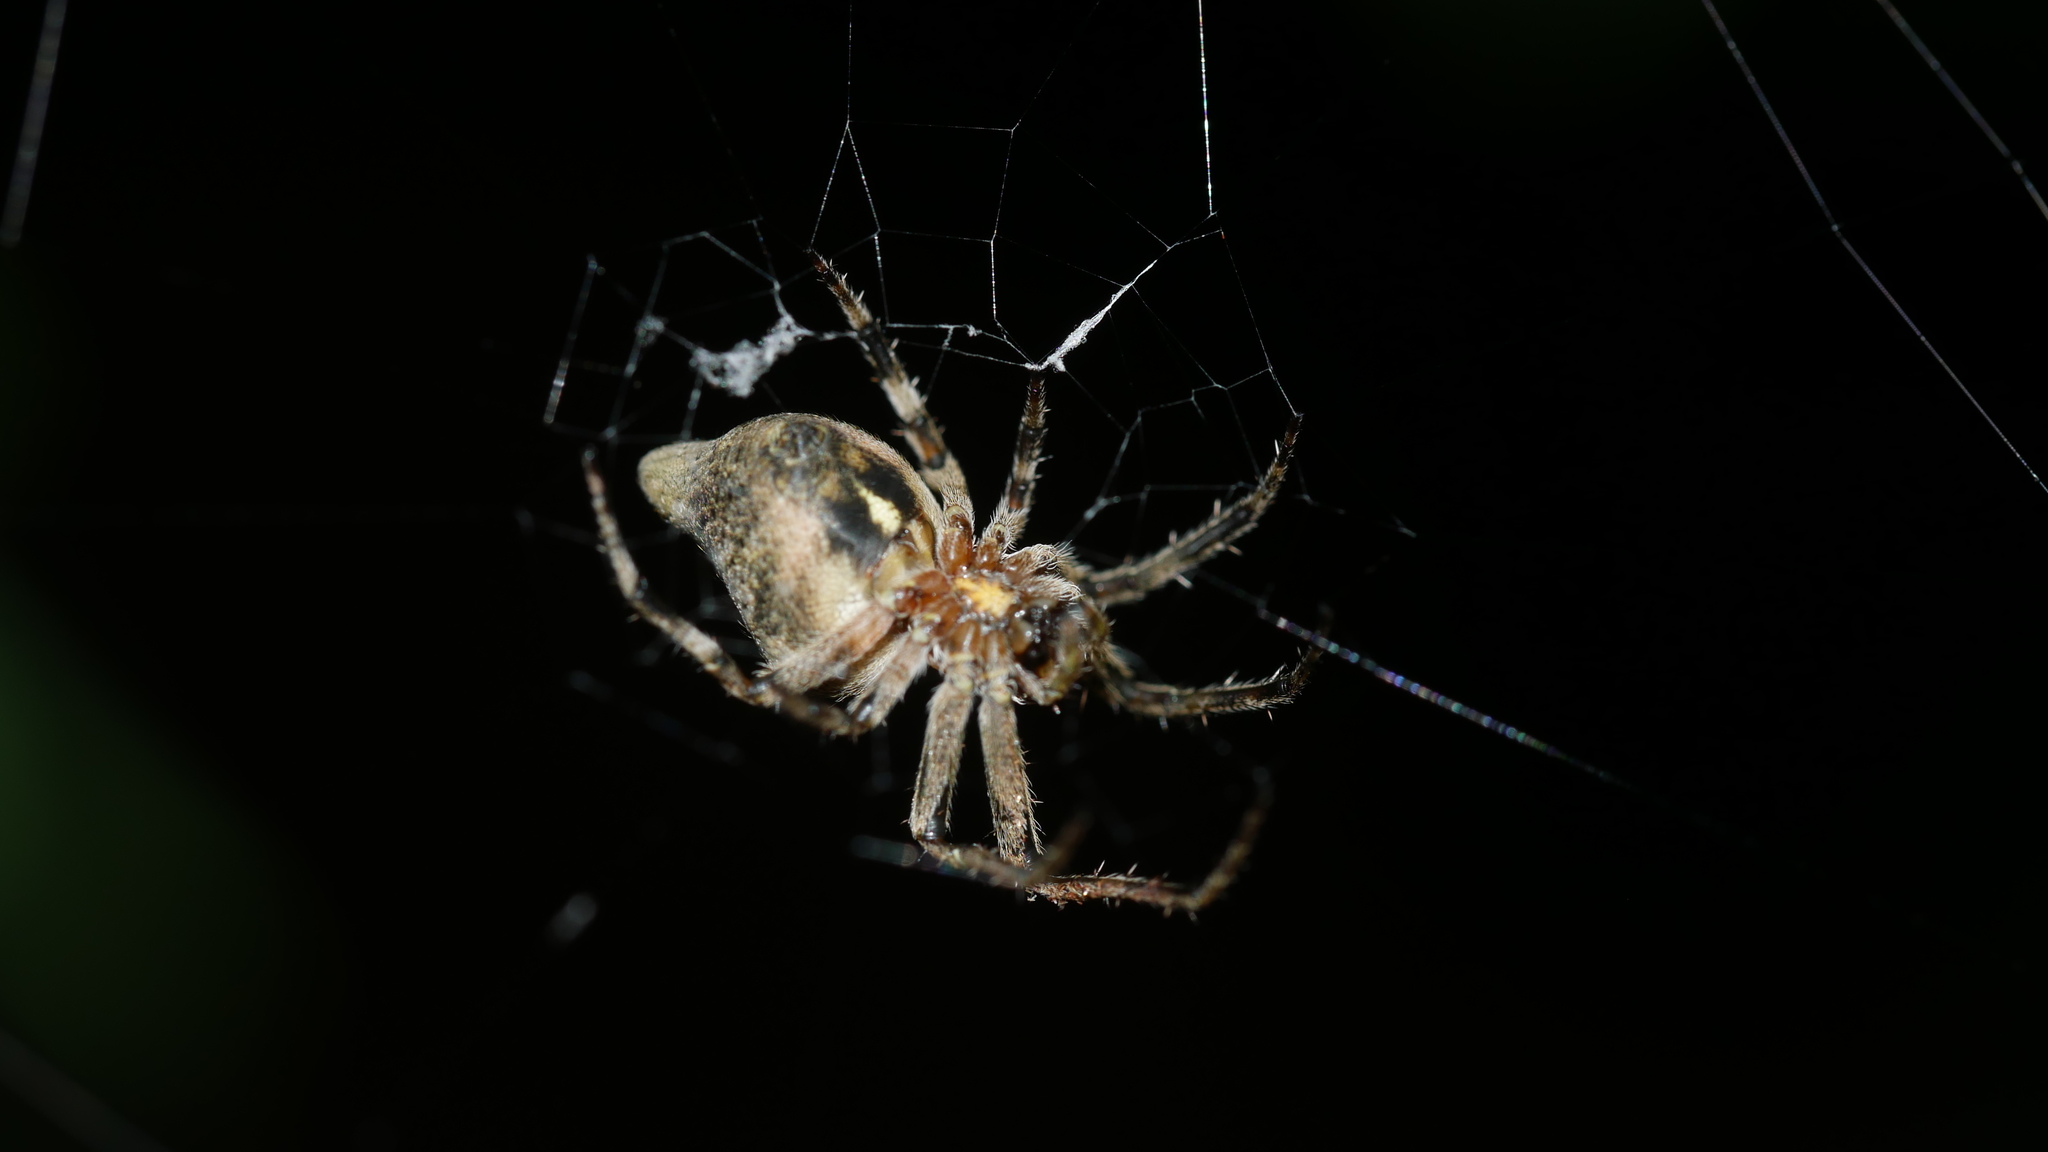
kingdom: Animalia
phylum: Arthropoda
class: Arachnida
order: Araneae
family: Araneidae
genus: Eustala
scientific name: Eustala
